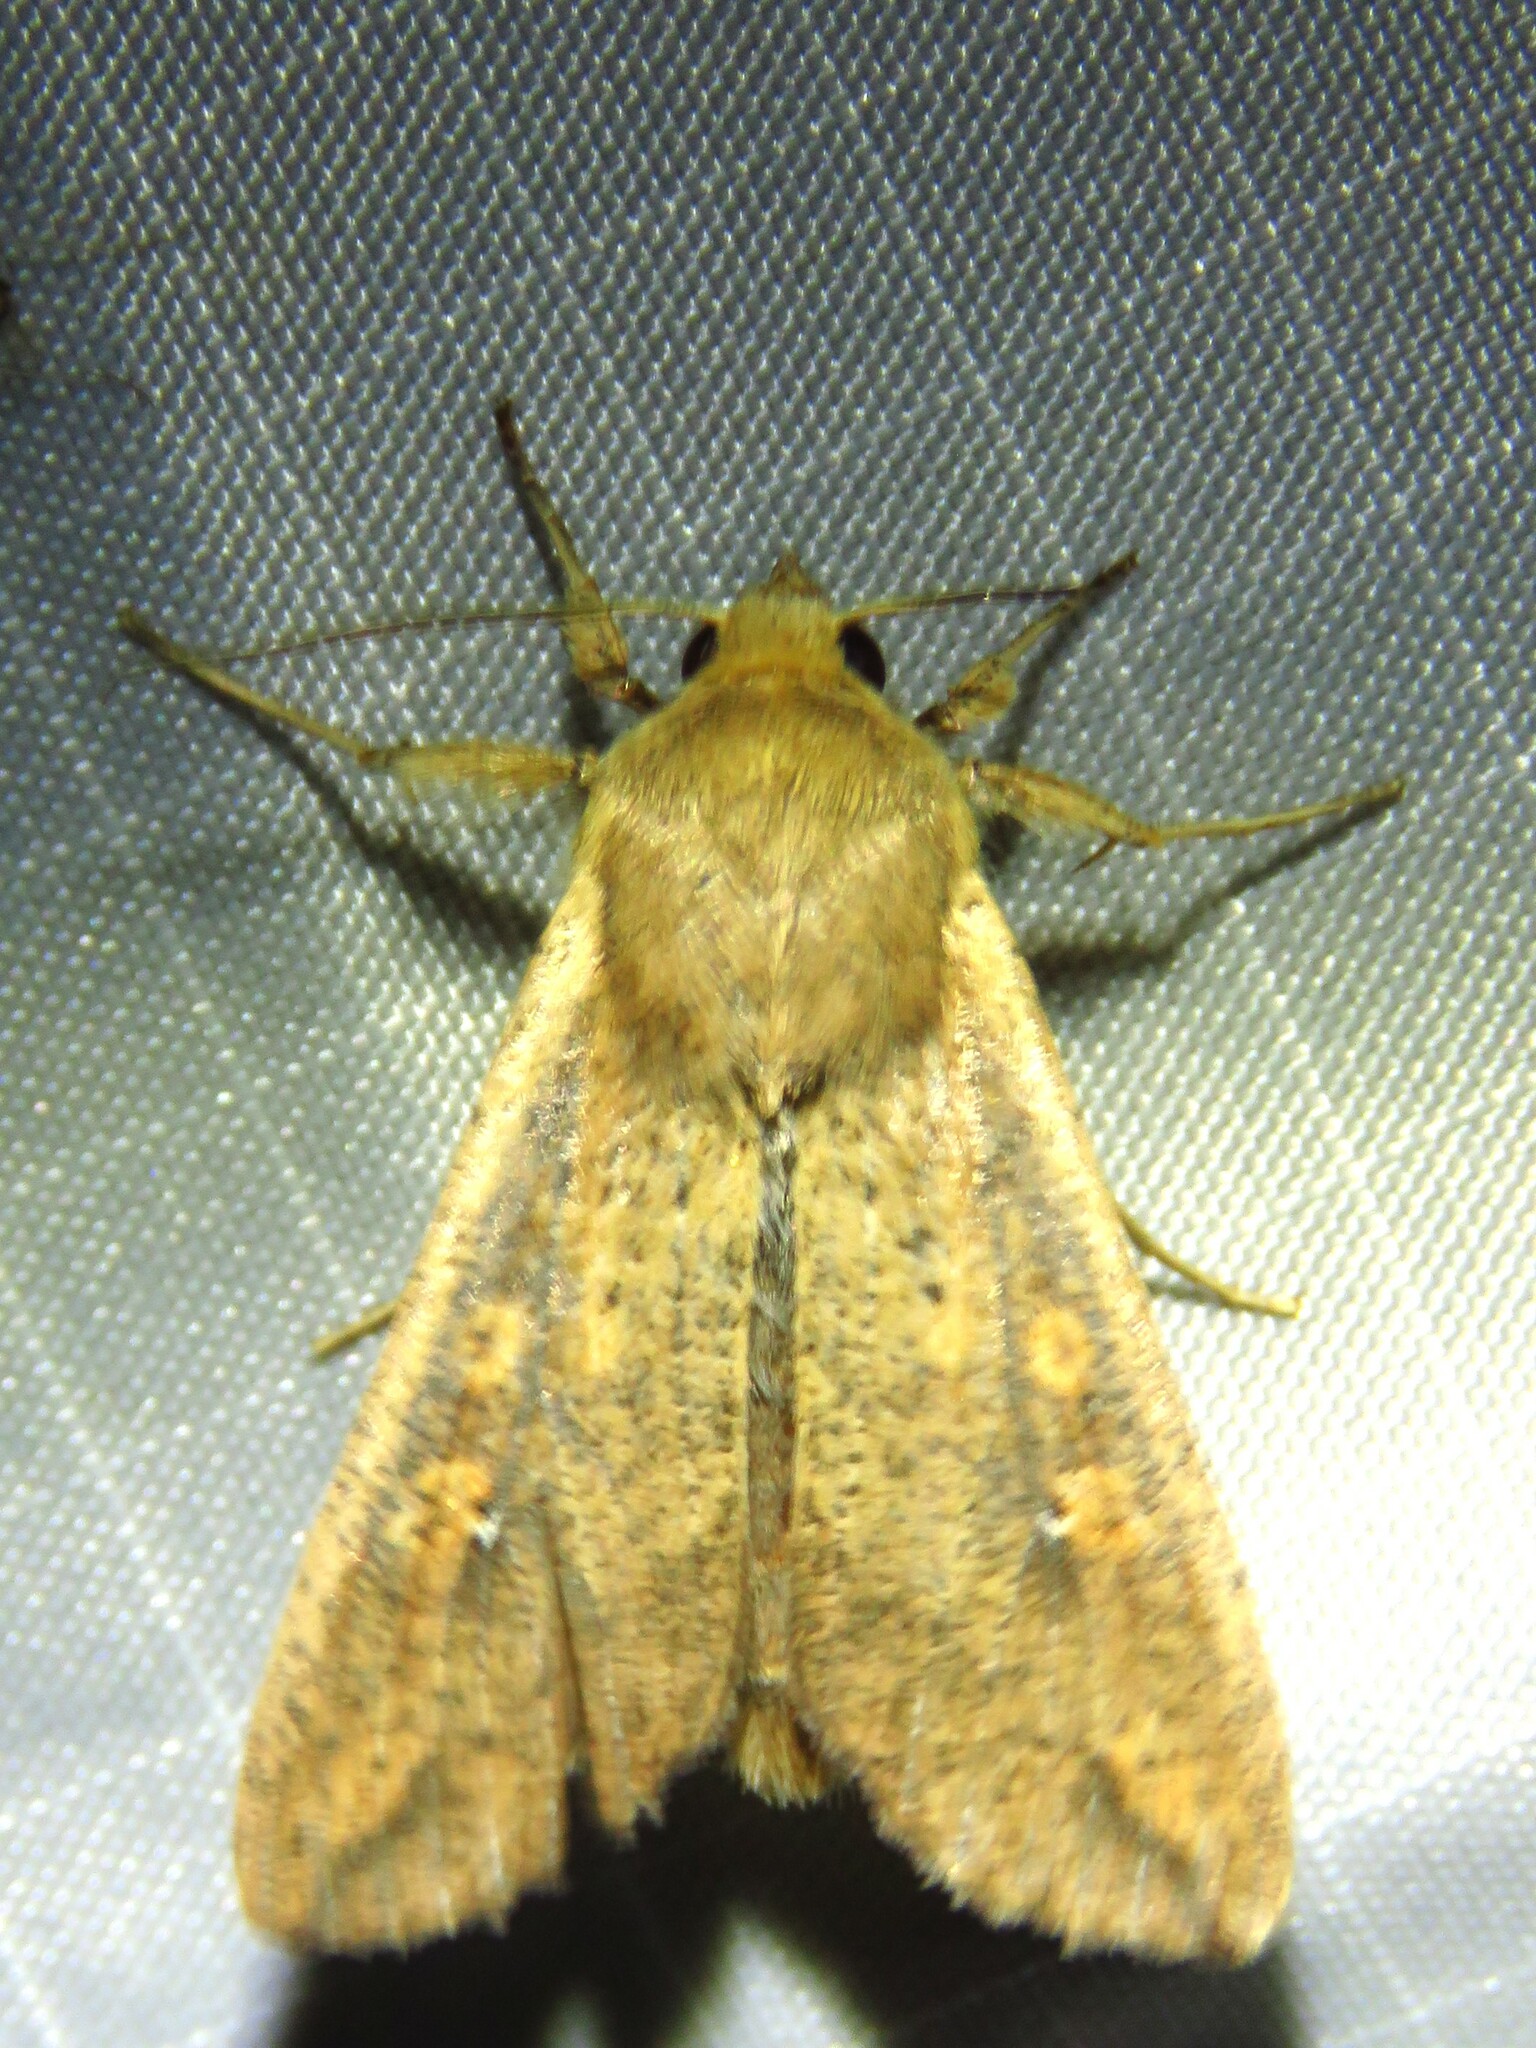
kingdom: Animalia
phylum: Arthropoda
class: Insecta
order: Lepidoptera
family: Noctuidae
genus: Mythimna
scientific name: Mythimna unipuncta
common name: White-speck
